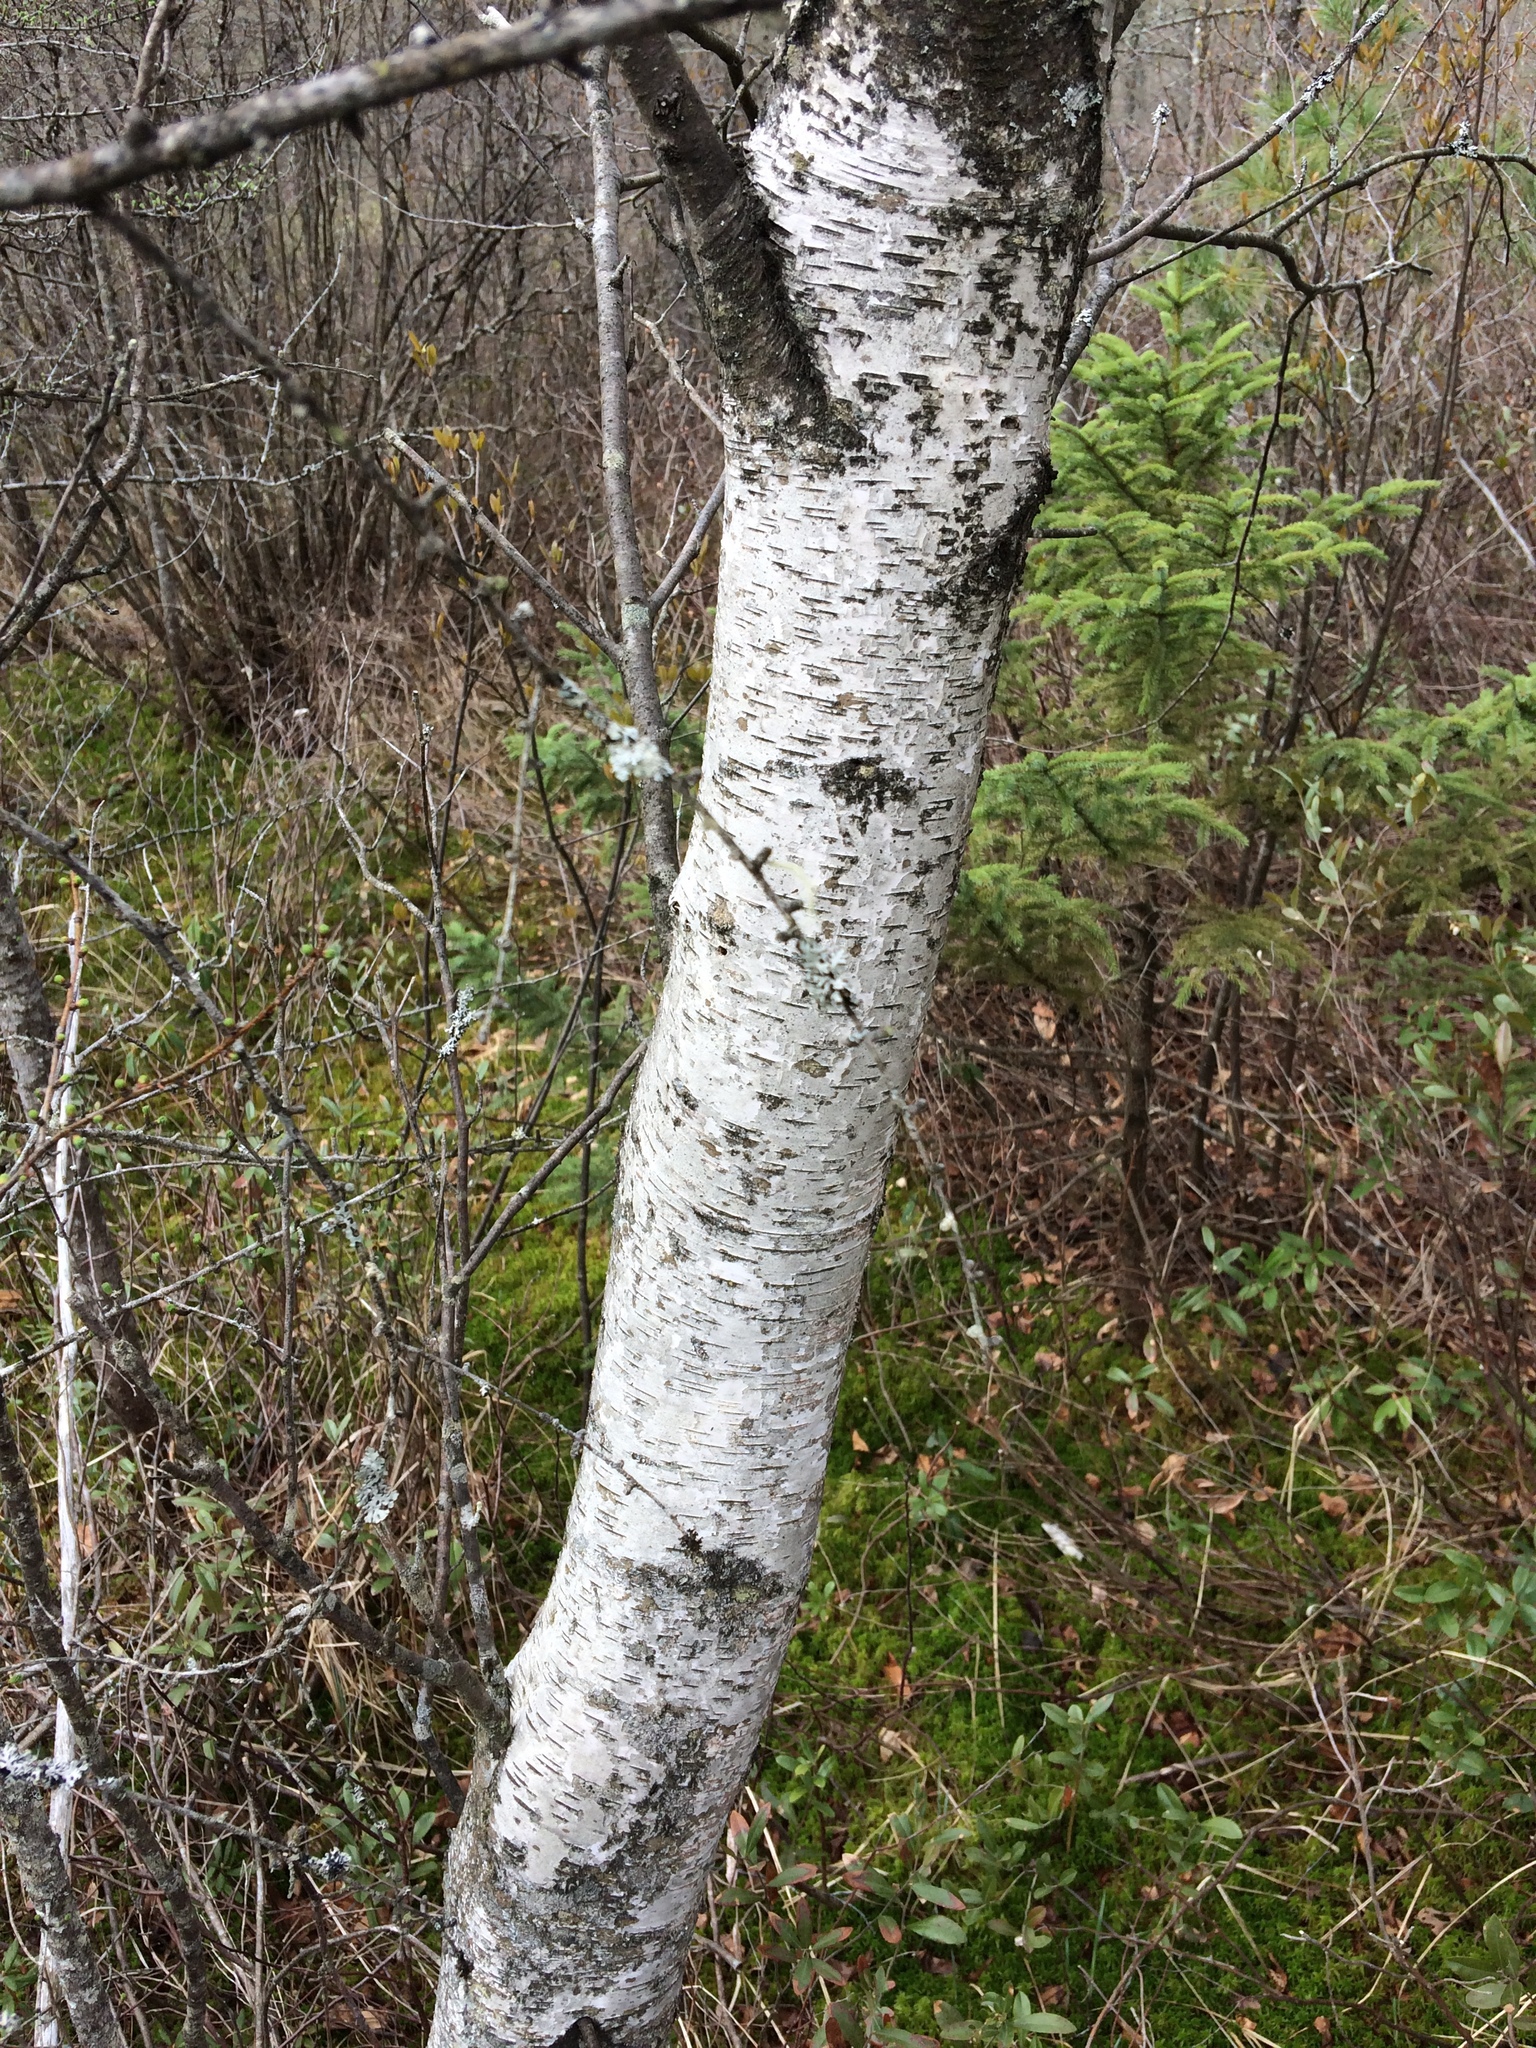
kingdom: Plantae
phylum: Tracheophyta
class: Magnoliopsida
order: Fagales
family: Betulaceae
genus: Betula
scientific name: Betula populifolia
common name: Fire birch
